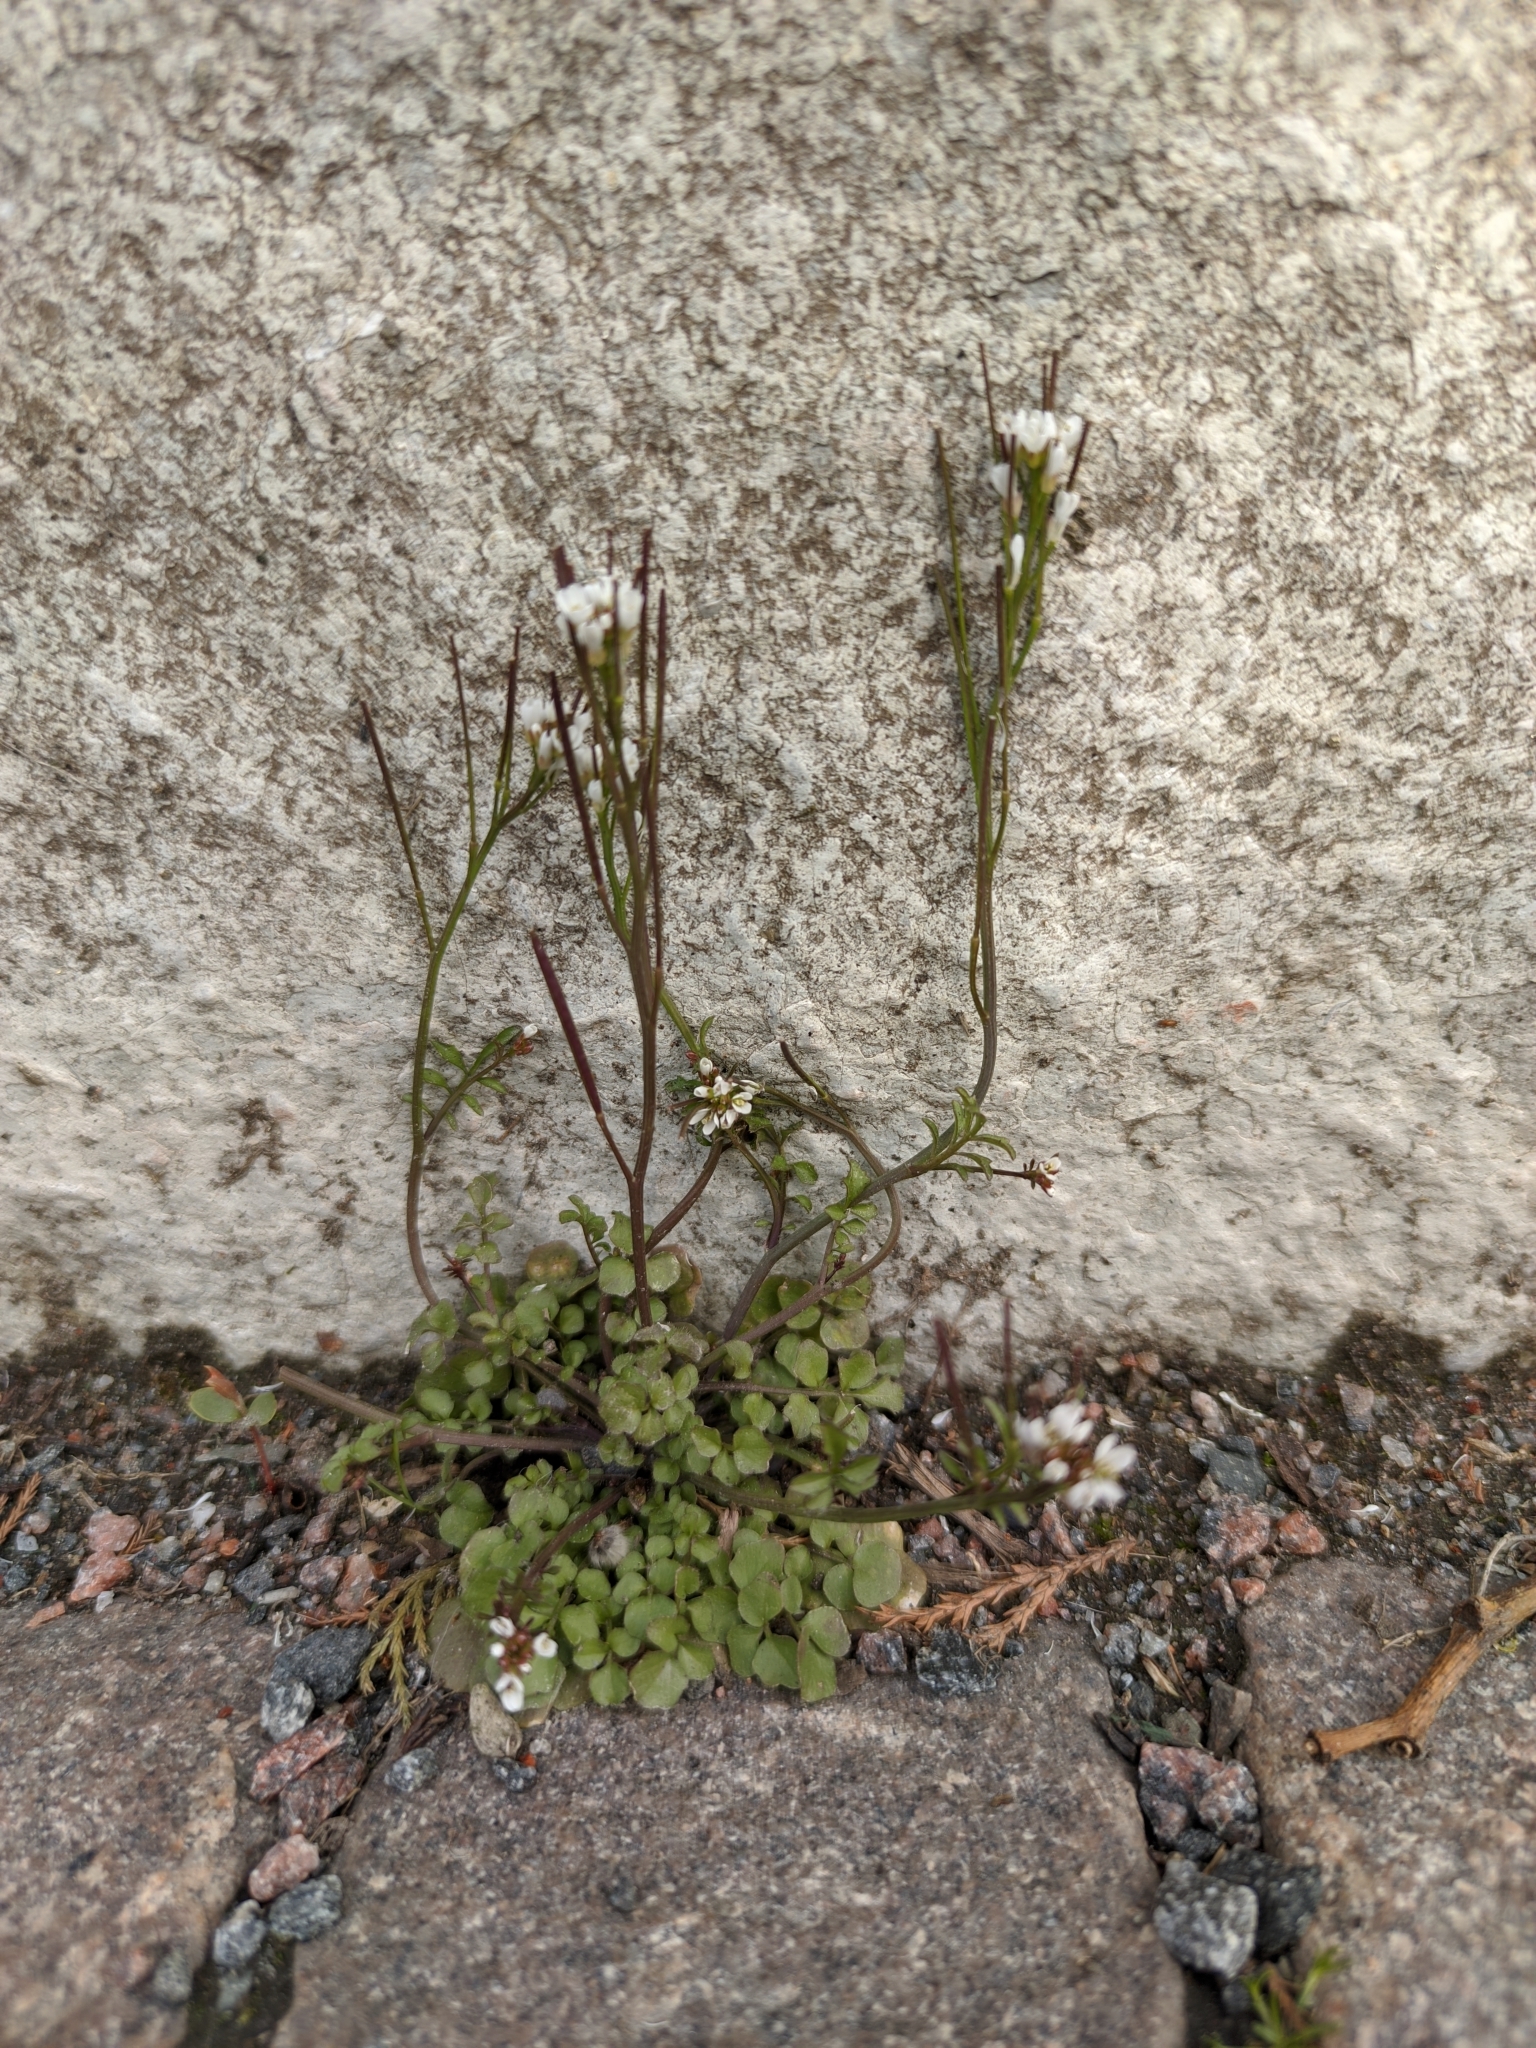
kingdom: Plantae
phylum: Tracheophyta
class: Magnoliopsida
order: Brassicales
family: Brassicaceae
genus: Cardamine
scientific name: Cardamine hirsuta
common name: Hairy bittercress
